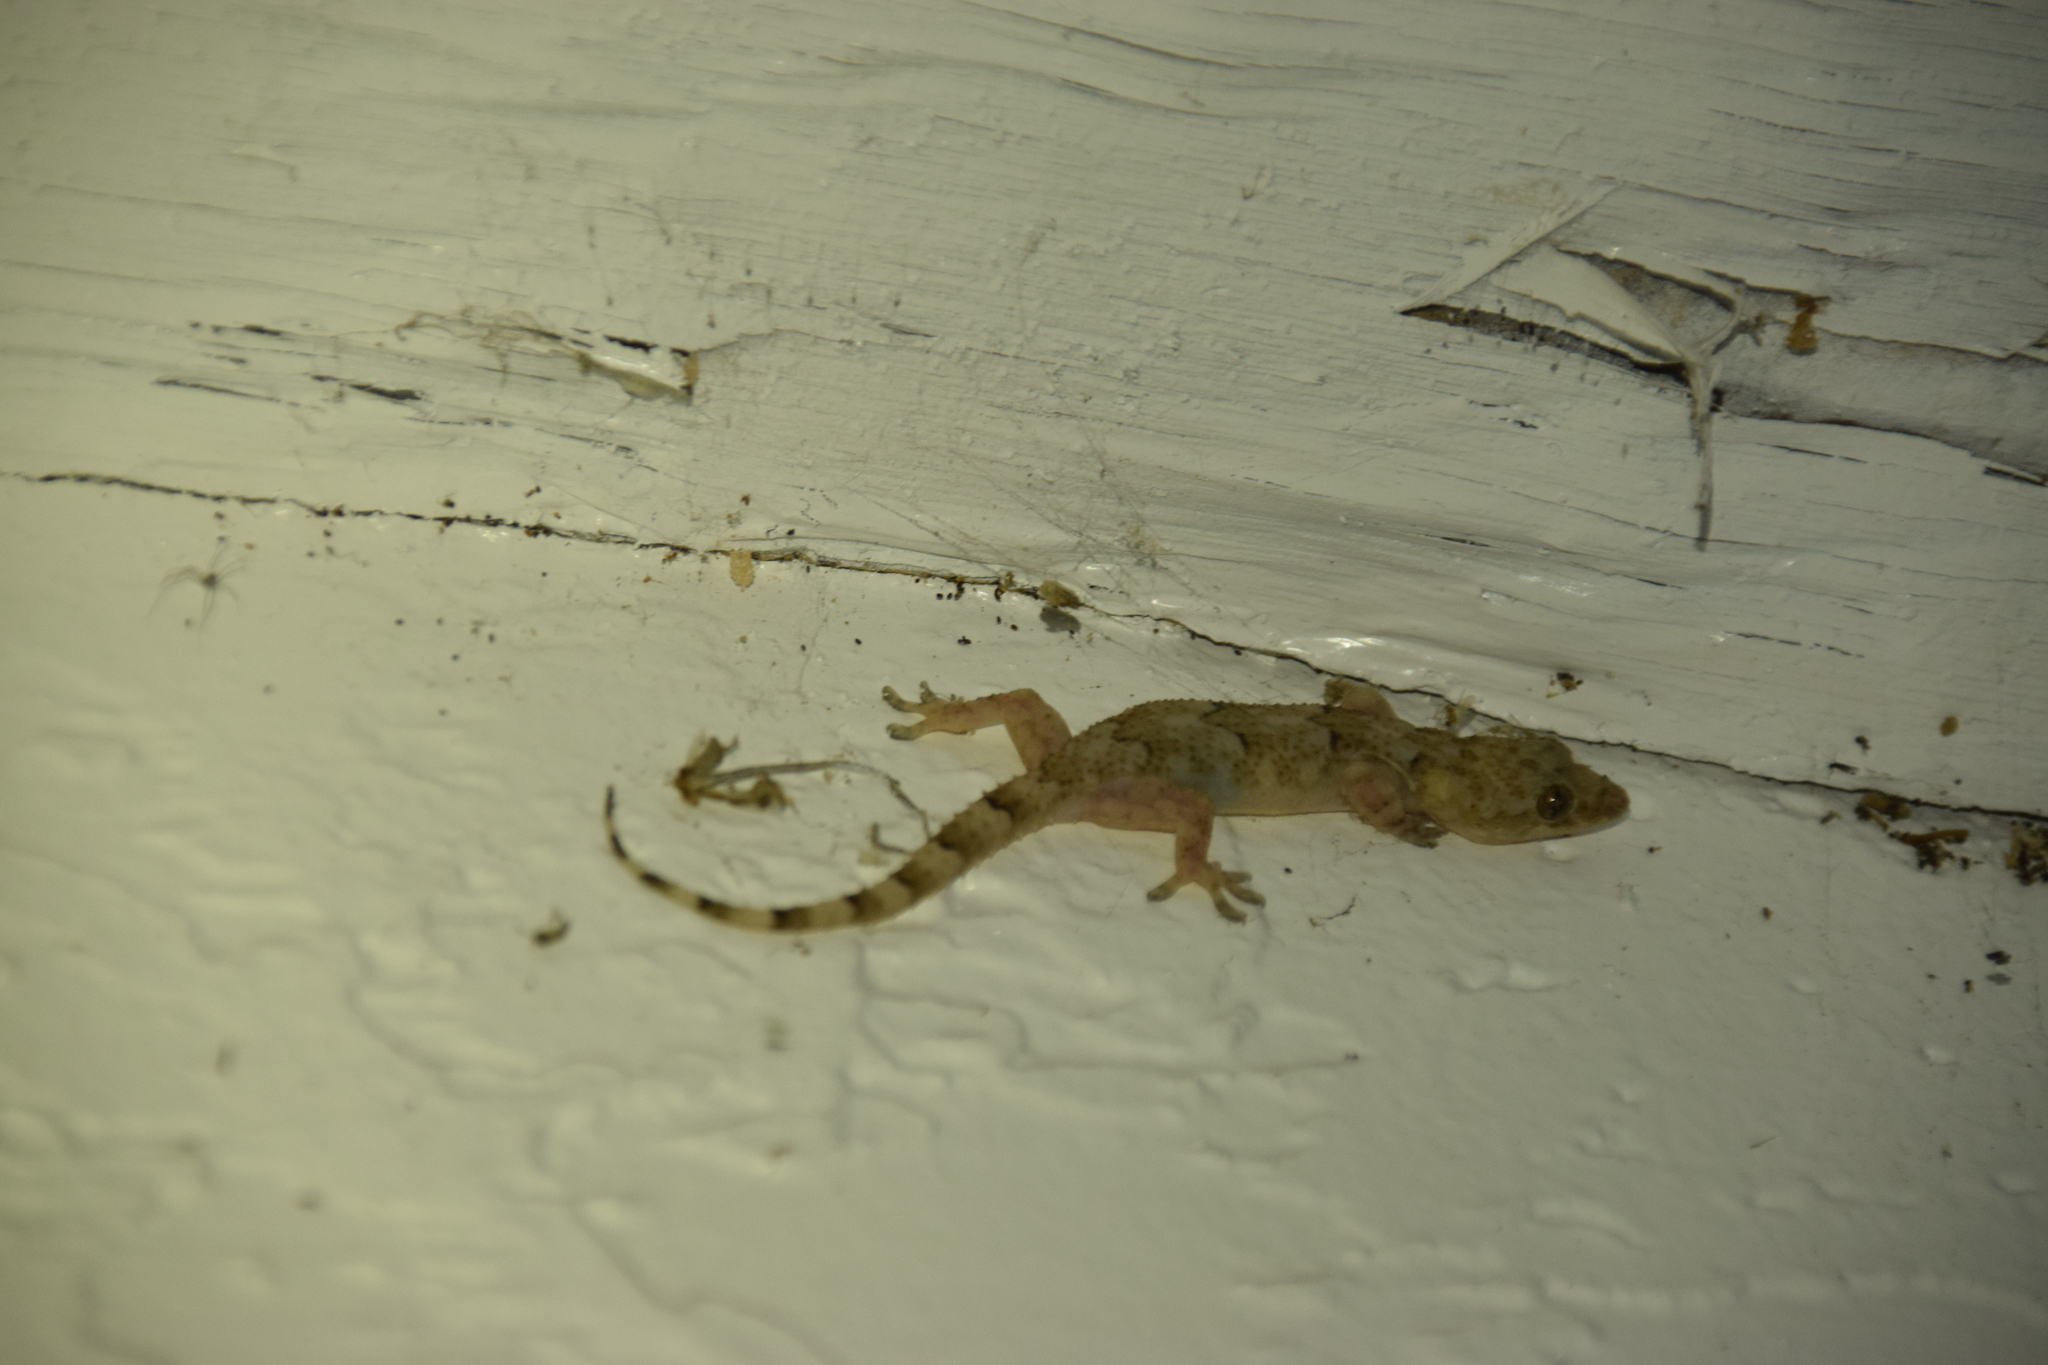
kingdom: Animalia
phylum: Chordata
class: Squamata
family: Gekkonidae
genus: Hemidactylus
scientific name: Hemidactylus mabouia
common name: House gecko
